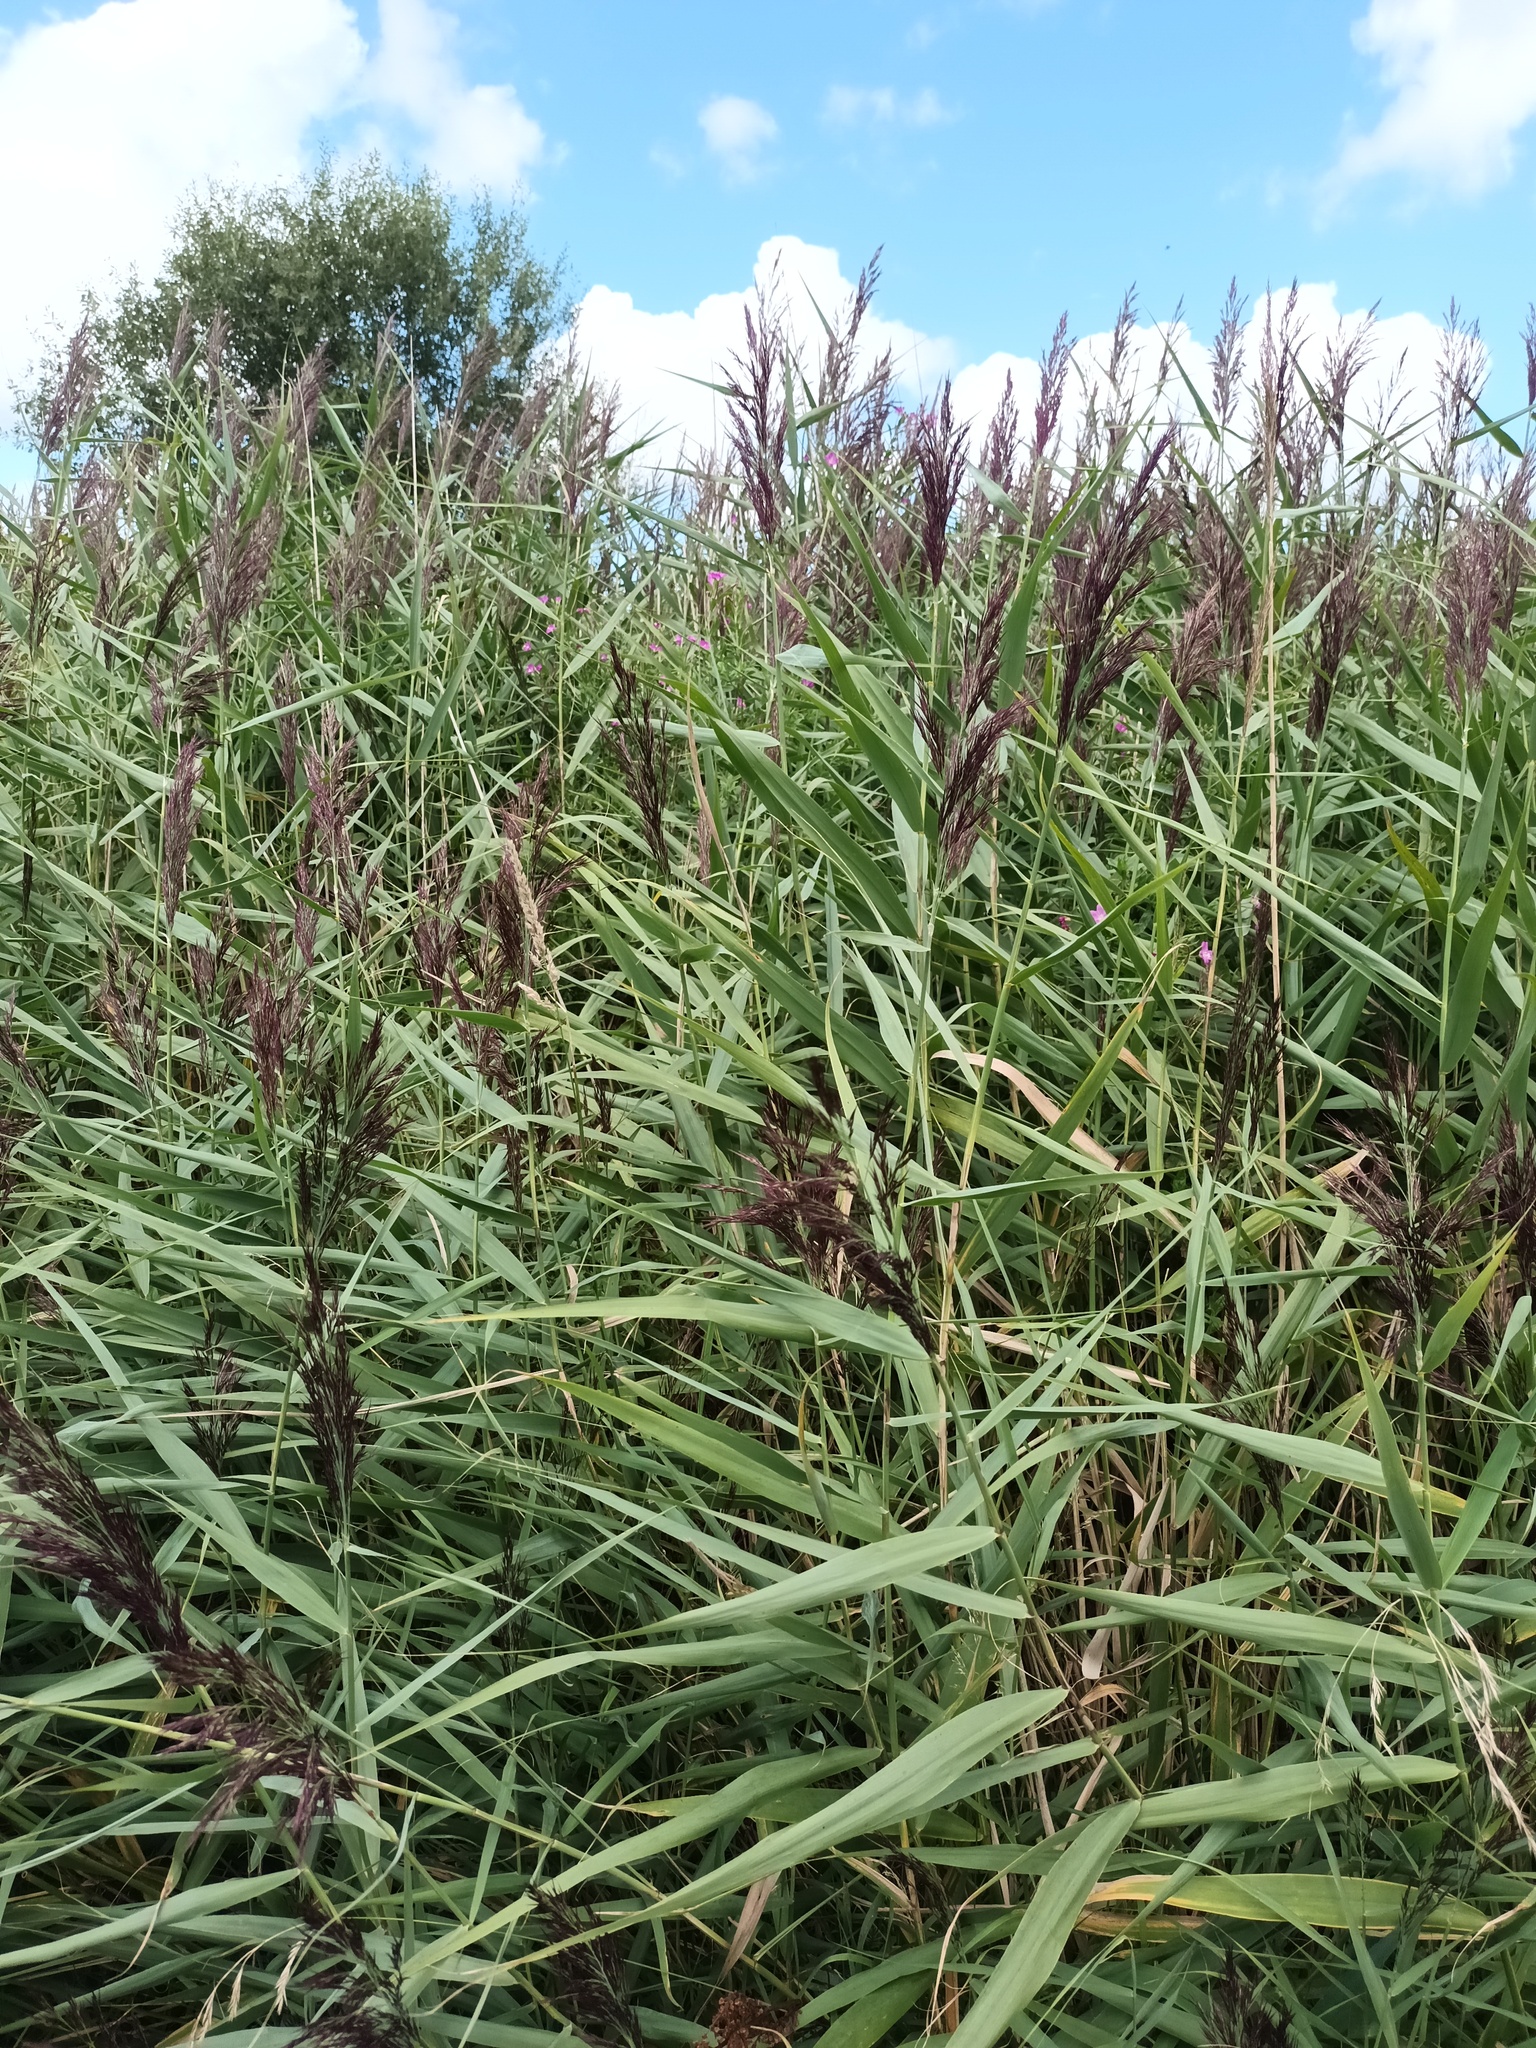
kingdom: Plantae
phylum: Tracheophyta
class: Liliopsida
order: Poales
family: Poaceae
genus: Phragmites
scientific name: Phragmites australis
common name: Common reed
